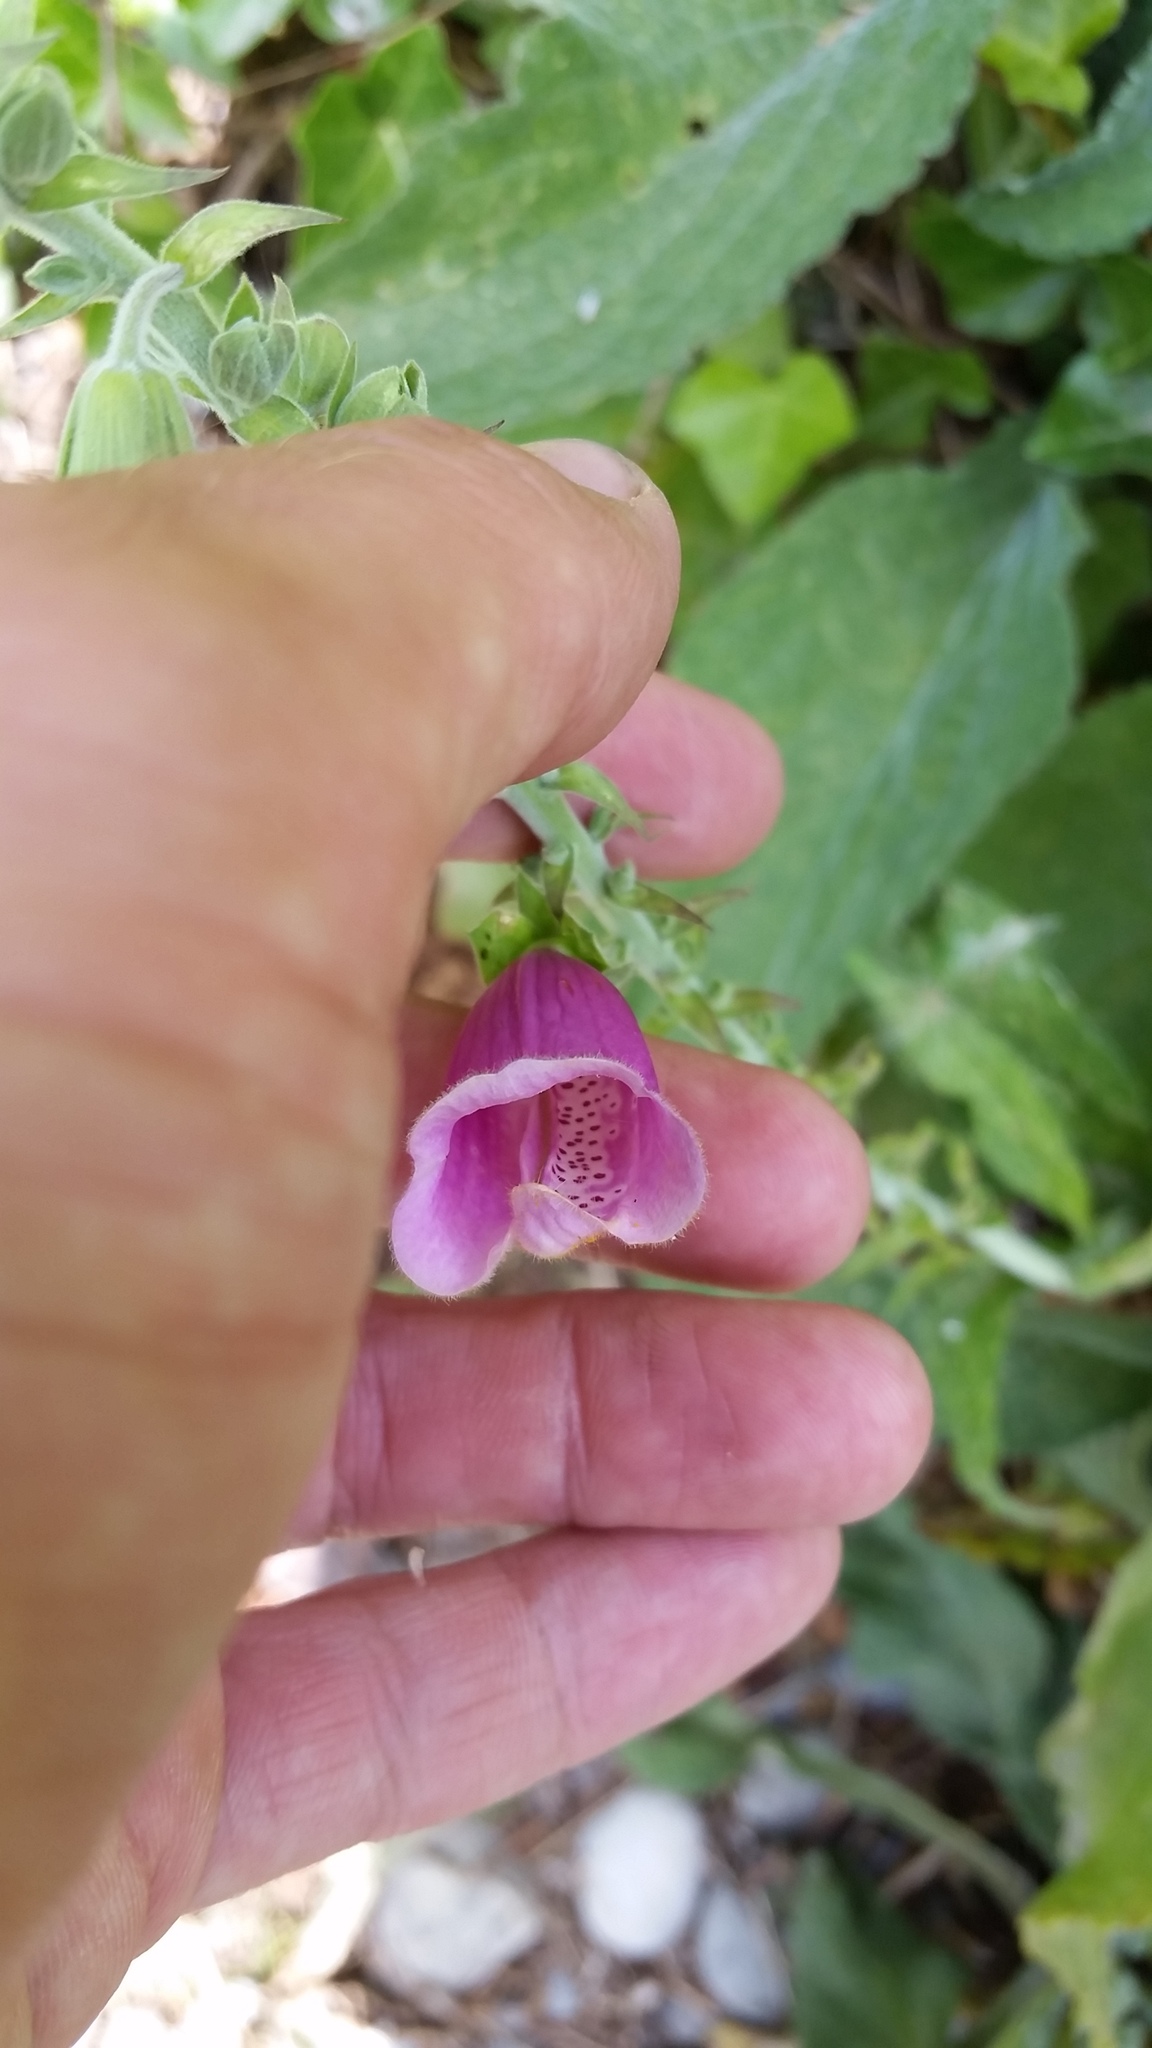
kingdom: Plantae
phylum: Tracheophyta
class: Magnoliopsida
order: Lamiales
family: Plantaginaceae
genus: Digitalis
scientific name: Digitalis purpurea
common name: Foxglove
